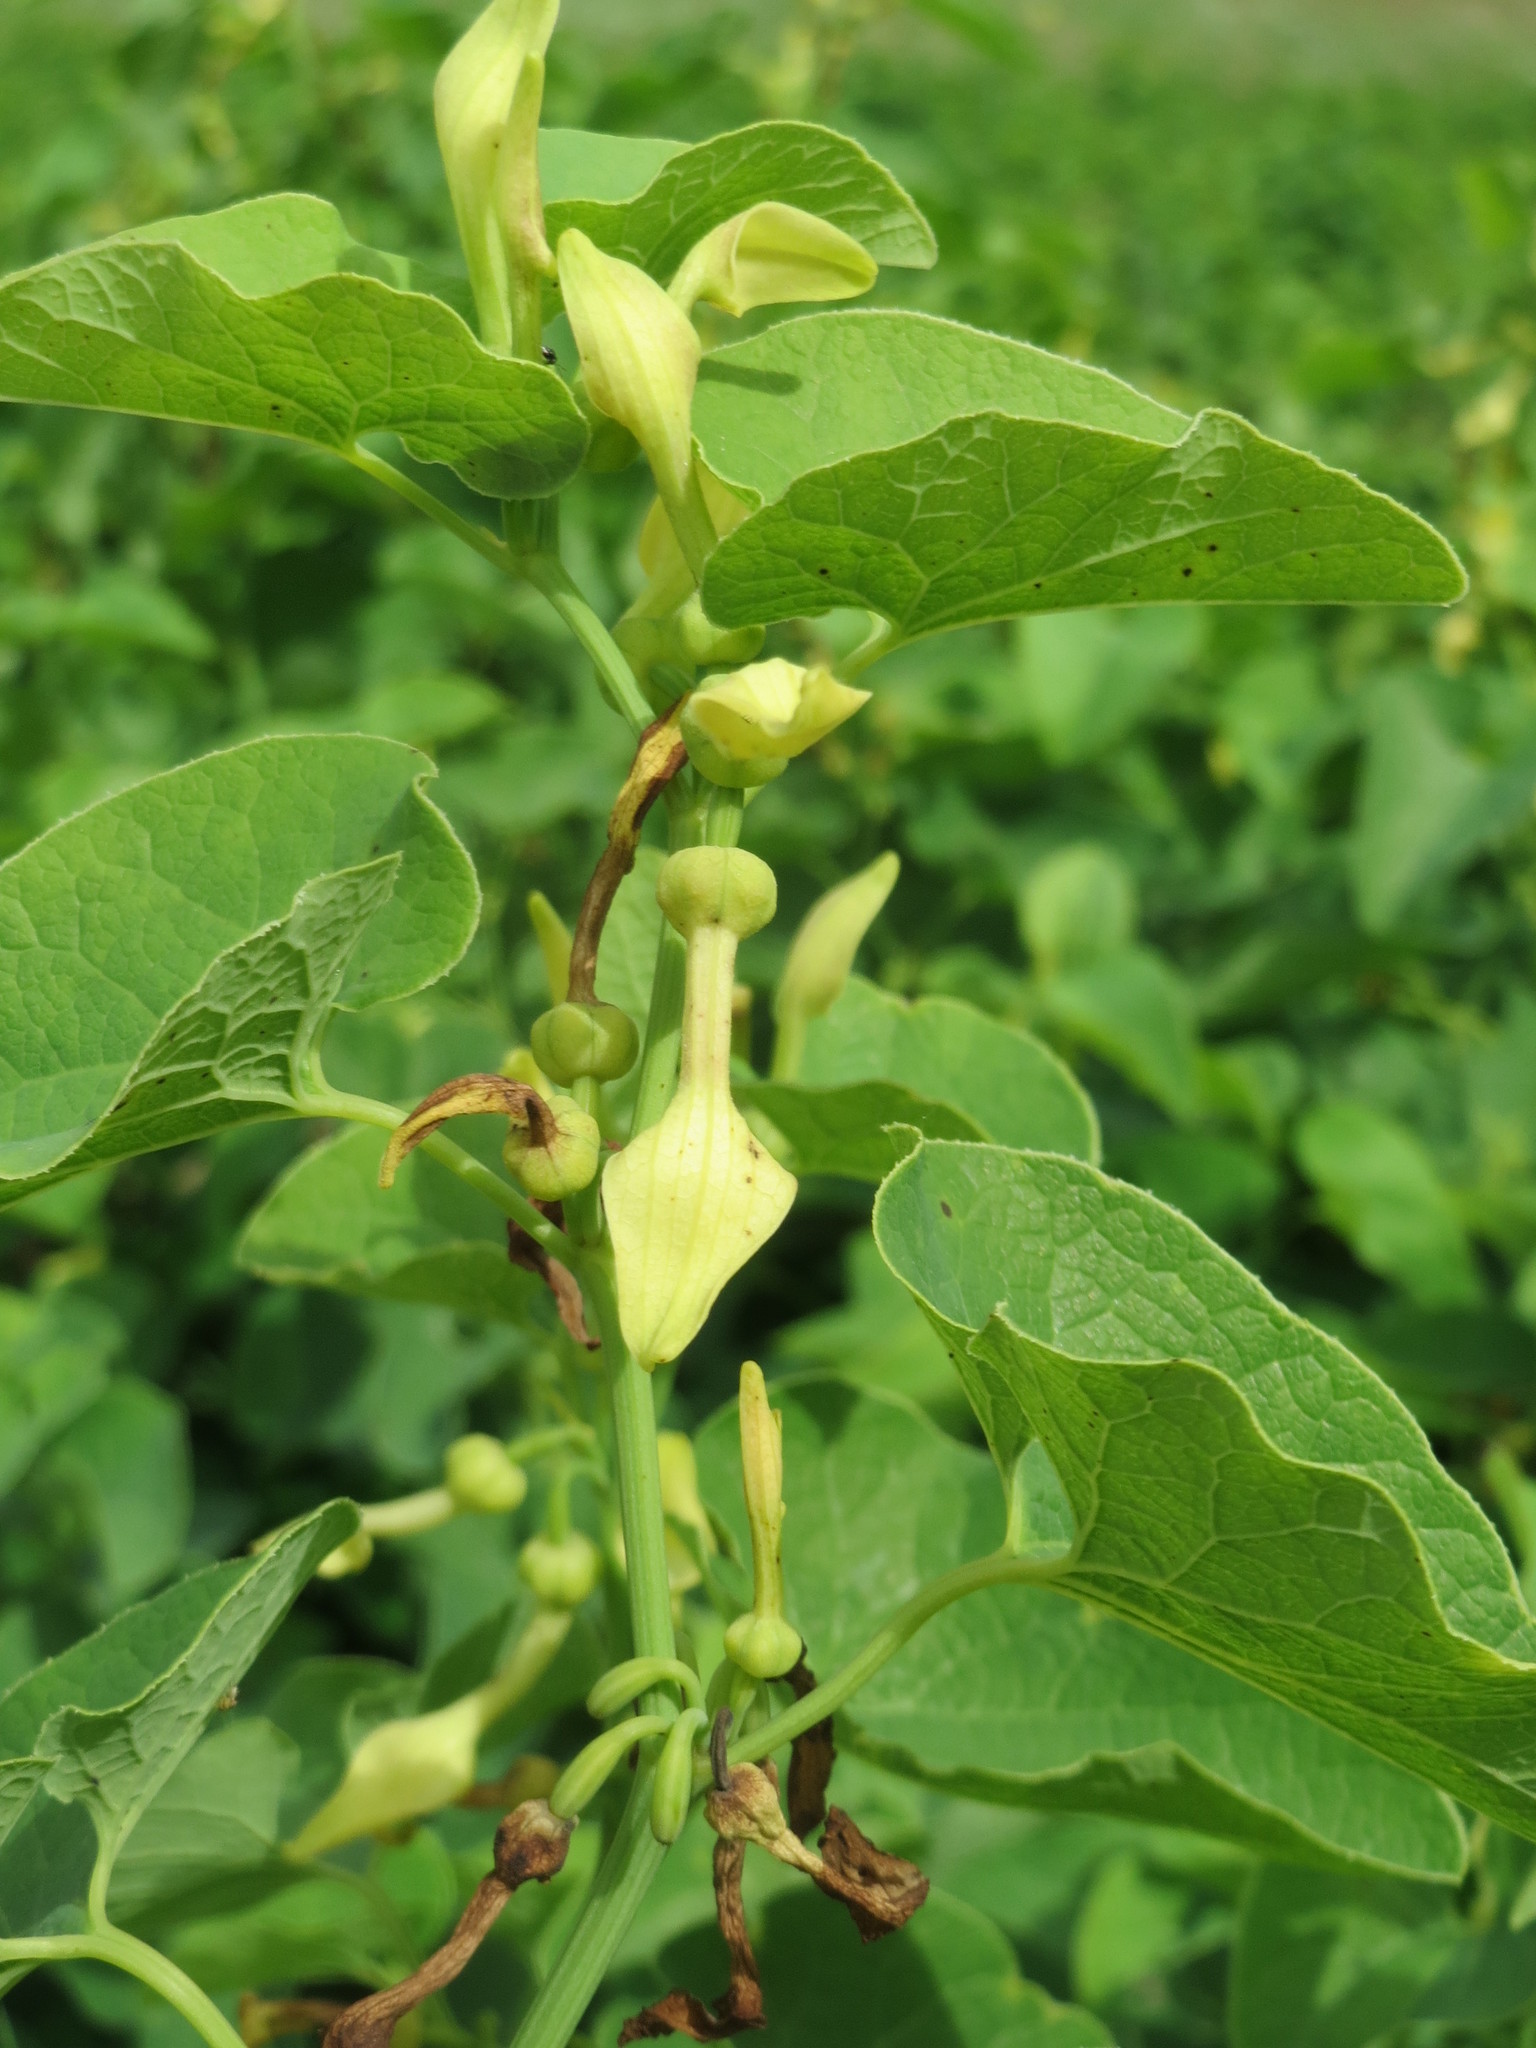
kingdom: Plantae
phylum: Tracheophyta
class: Magnoliopsida
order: Piperales
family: Aristolochiaceae
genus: Aristolochia
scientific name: Aristolochia clematitis
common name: Birthwort
